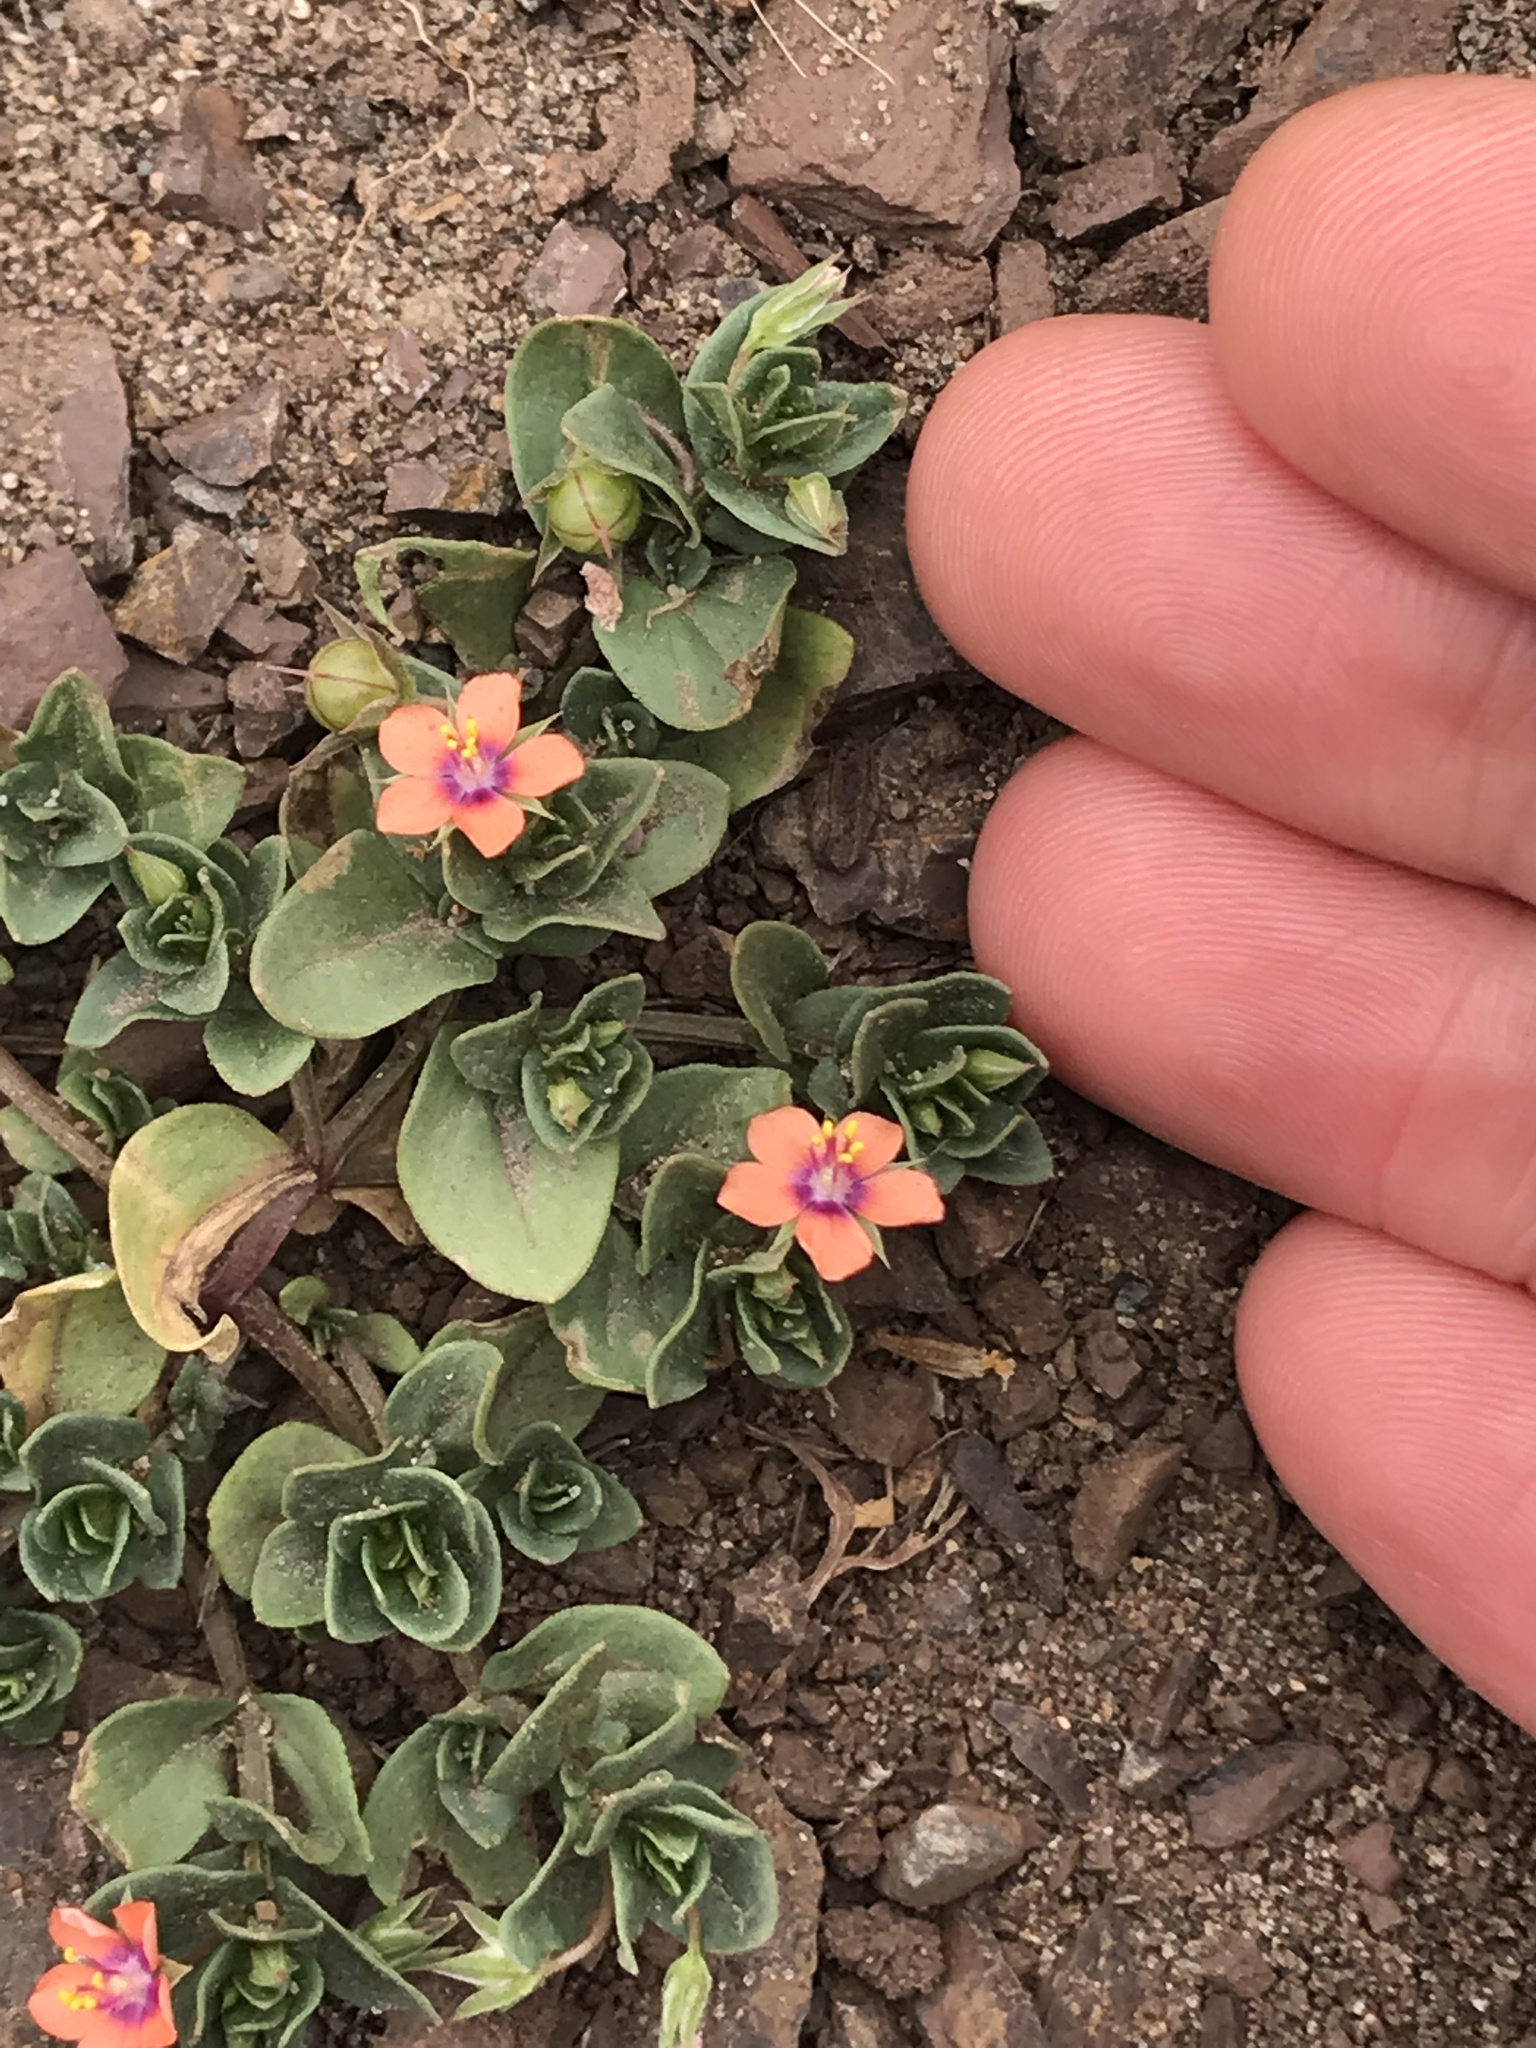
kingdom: Plantae
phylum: Tracheophyta
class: Magnoliopsida
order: Ericales
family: Primulaceae
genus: Lysimachia
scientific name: Lysimachia arvensis
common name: Scarlet pimpernel
